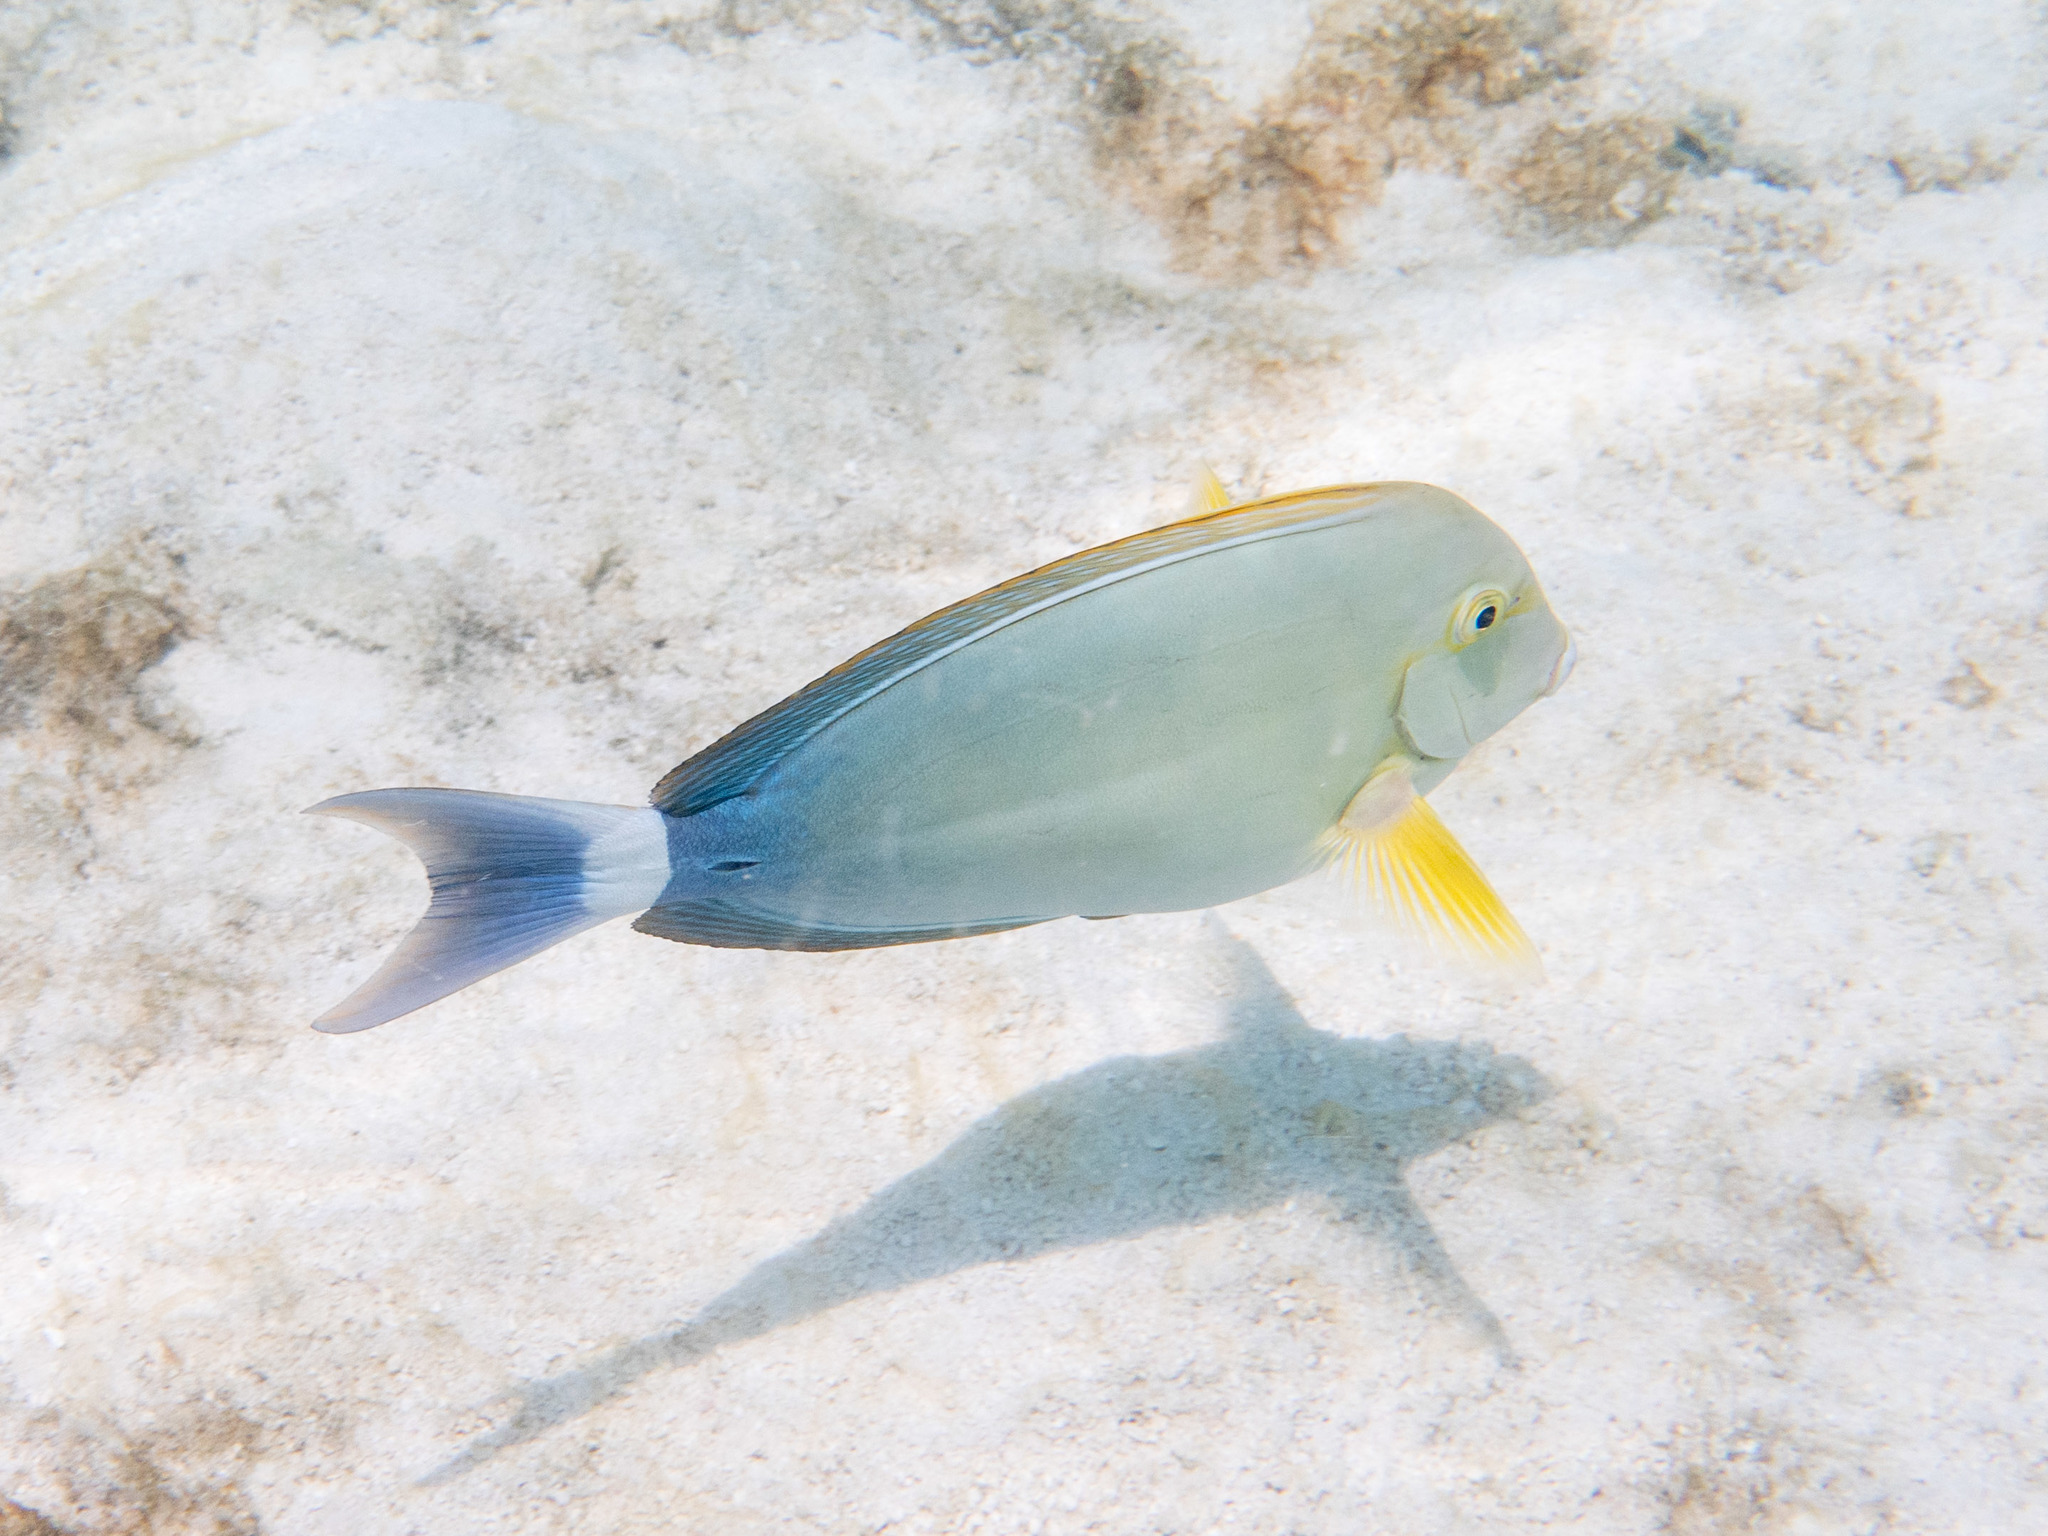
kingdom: Animalia
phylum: Chordata
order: Perciformes
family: Acanthuridae
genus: Acanthurus
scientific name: Acanthurus xanthopterus
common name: Cuvier's surgeonfish
